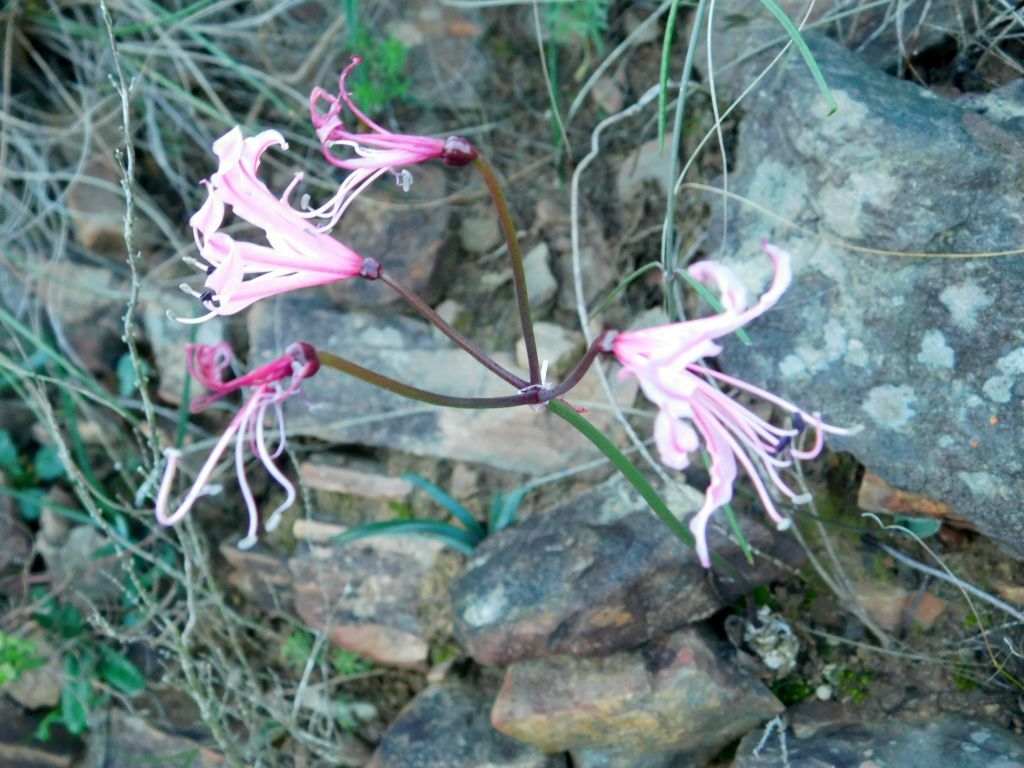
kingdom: Plantae
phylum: Tracheophyta
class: Liliopsida
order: Asparagales
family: Amaryllidaceae
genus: Nerine
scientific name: Nerine humilis
